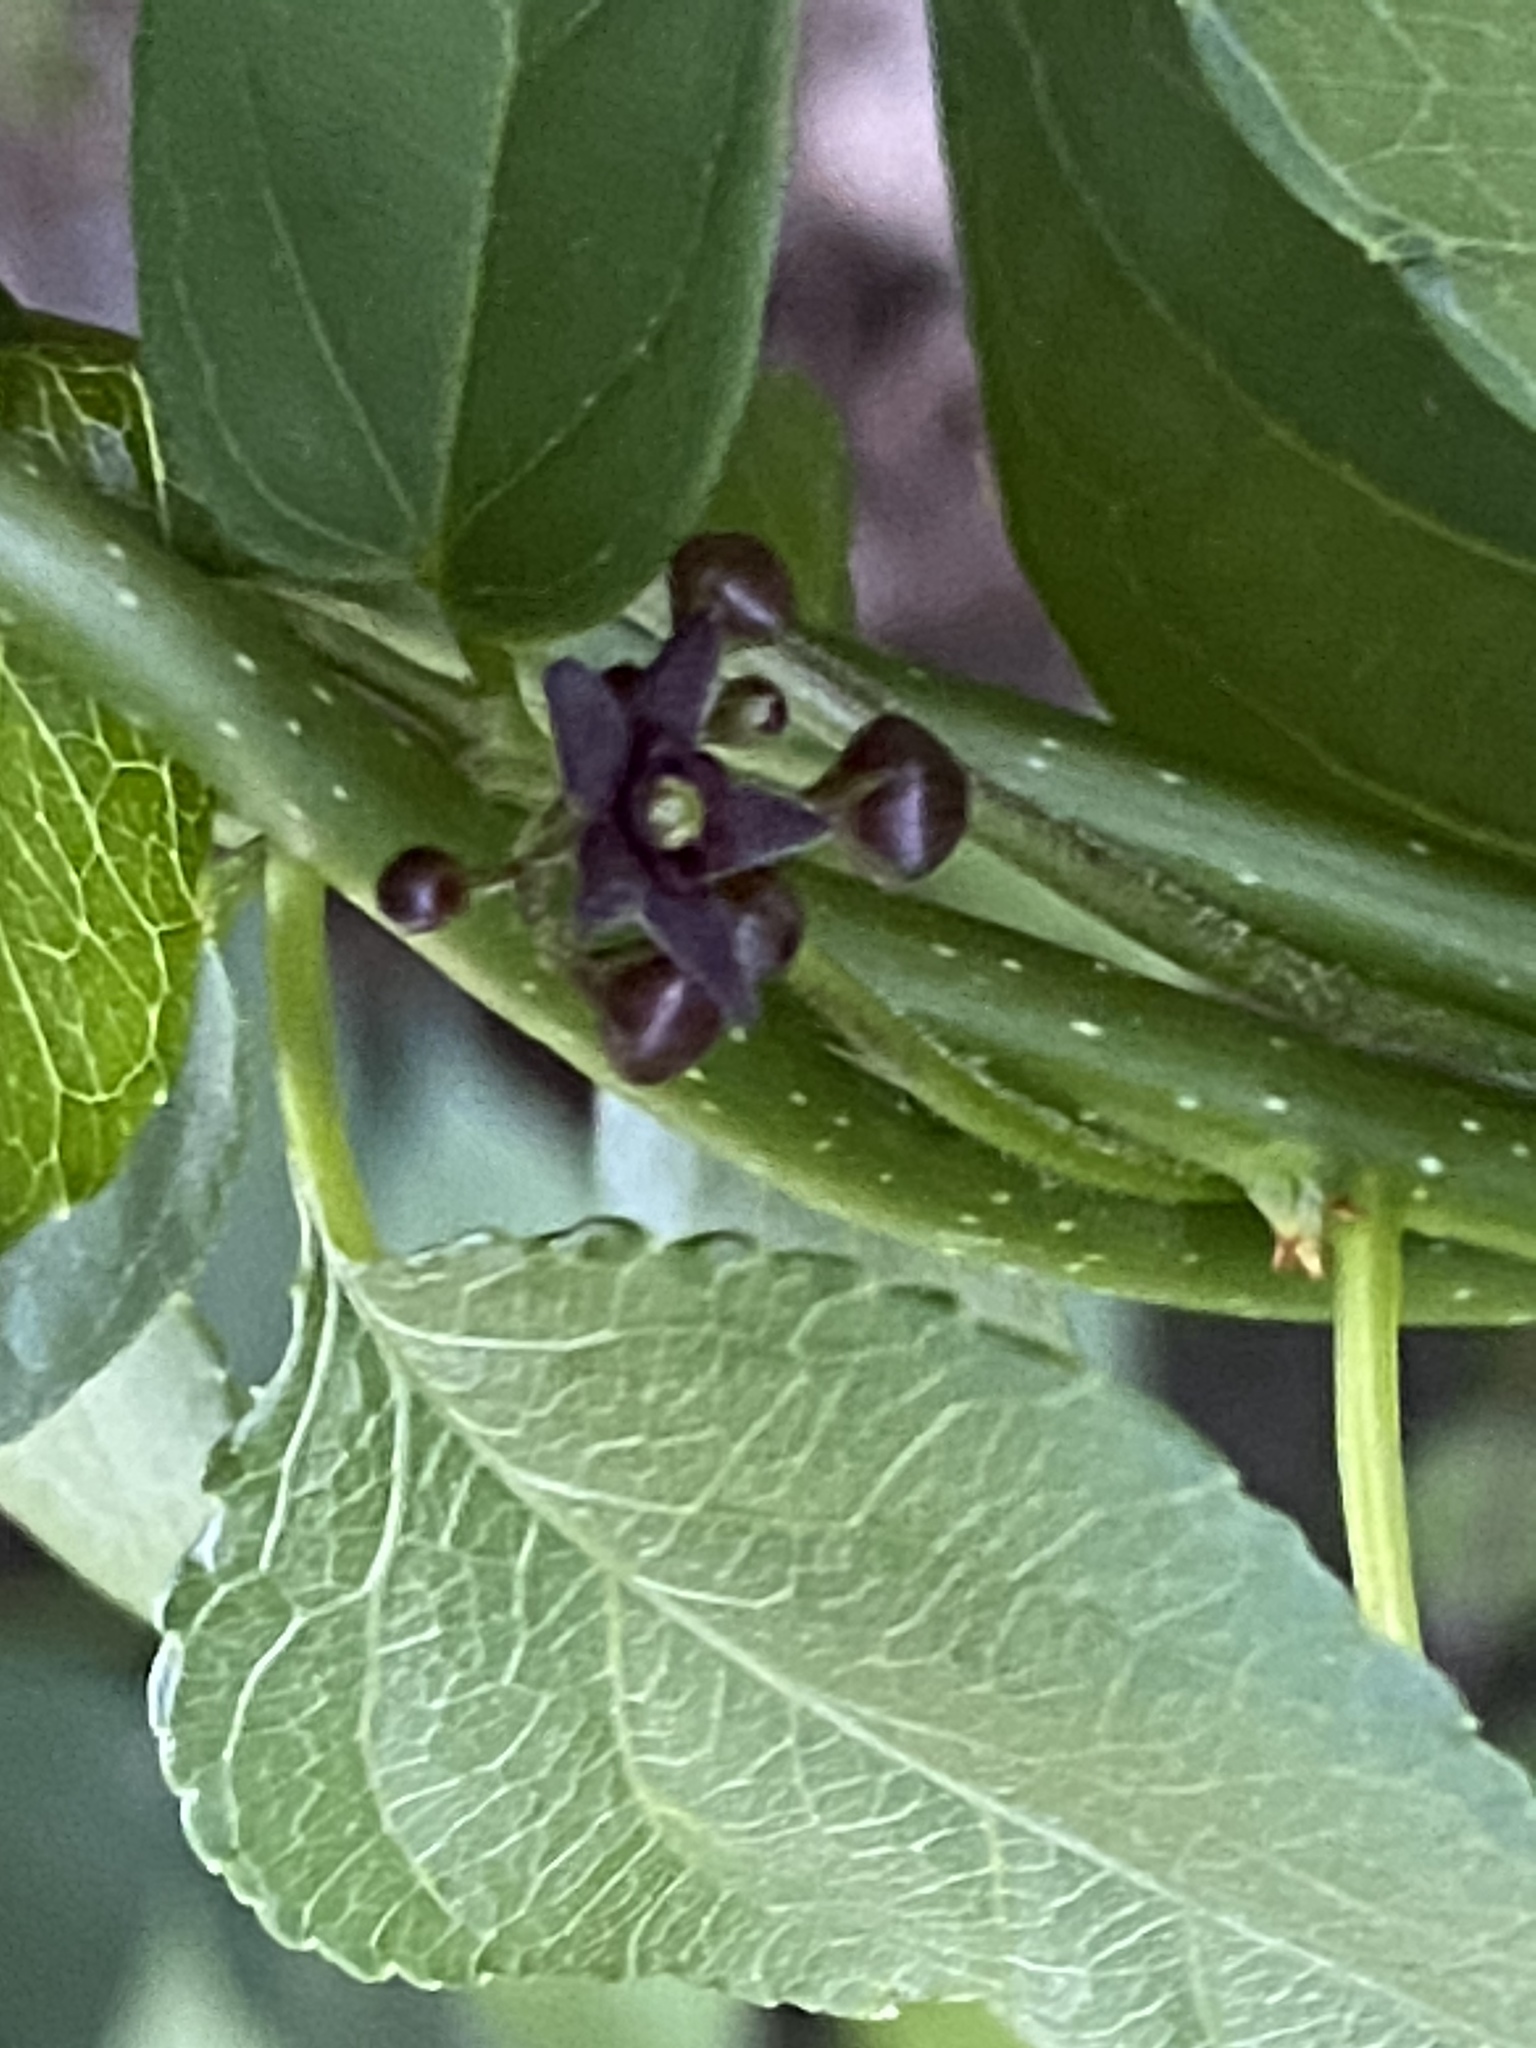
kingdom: Plantae
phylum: Tracheophyta
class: Magnoliopsida
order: Gentianales
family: Apocynaceae
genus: Vincetoxicum
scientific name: Vincetoxicum nigrum
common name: Black swallow-wort
